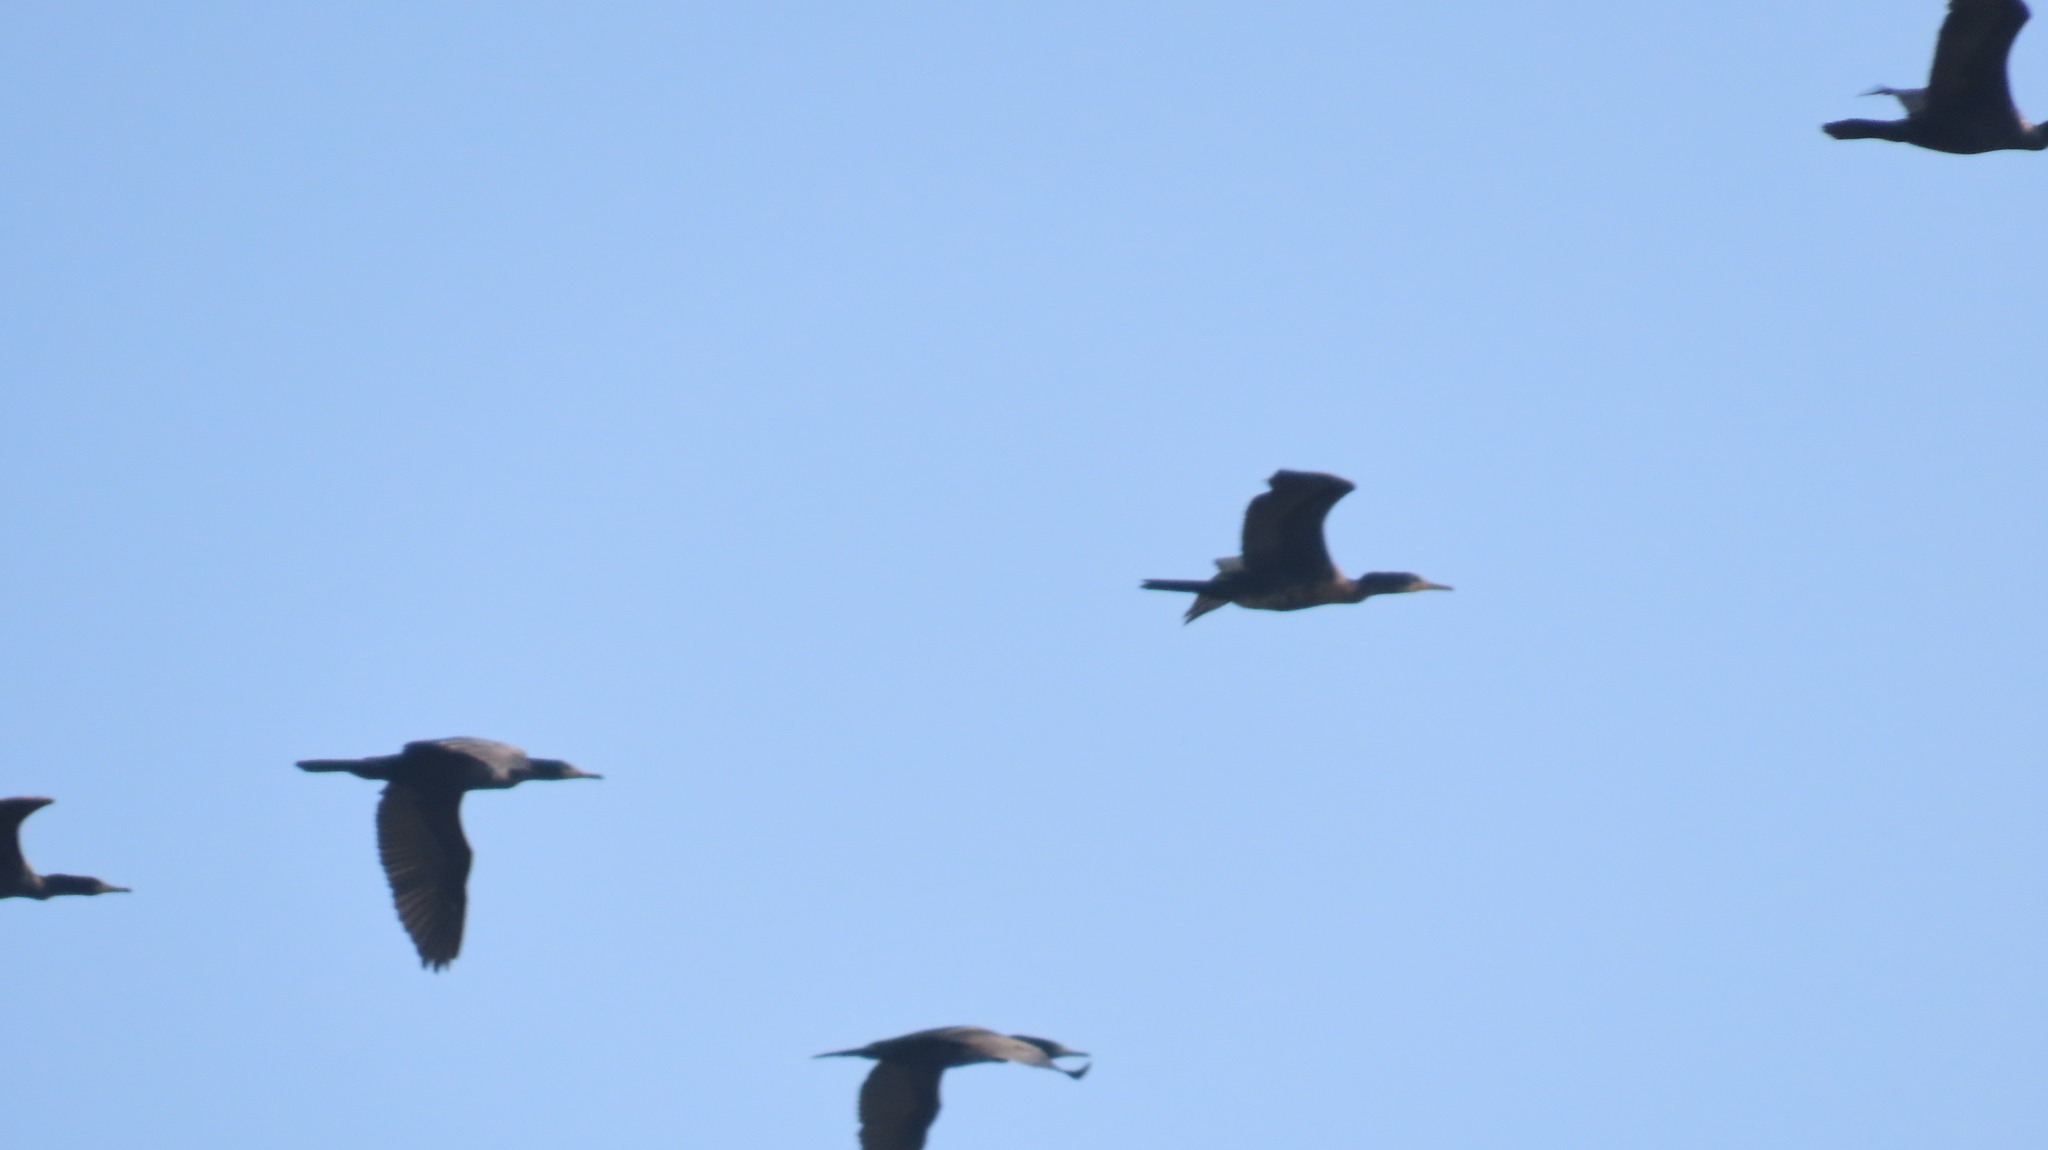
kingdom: Animalia
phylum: Chordata
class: Aves
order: Suliformes
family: Phalacrocoracidae
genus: Phalacrocorax
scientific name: Phalacrocorax fuscicollis
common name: Indian cormorant
